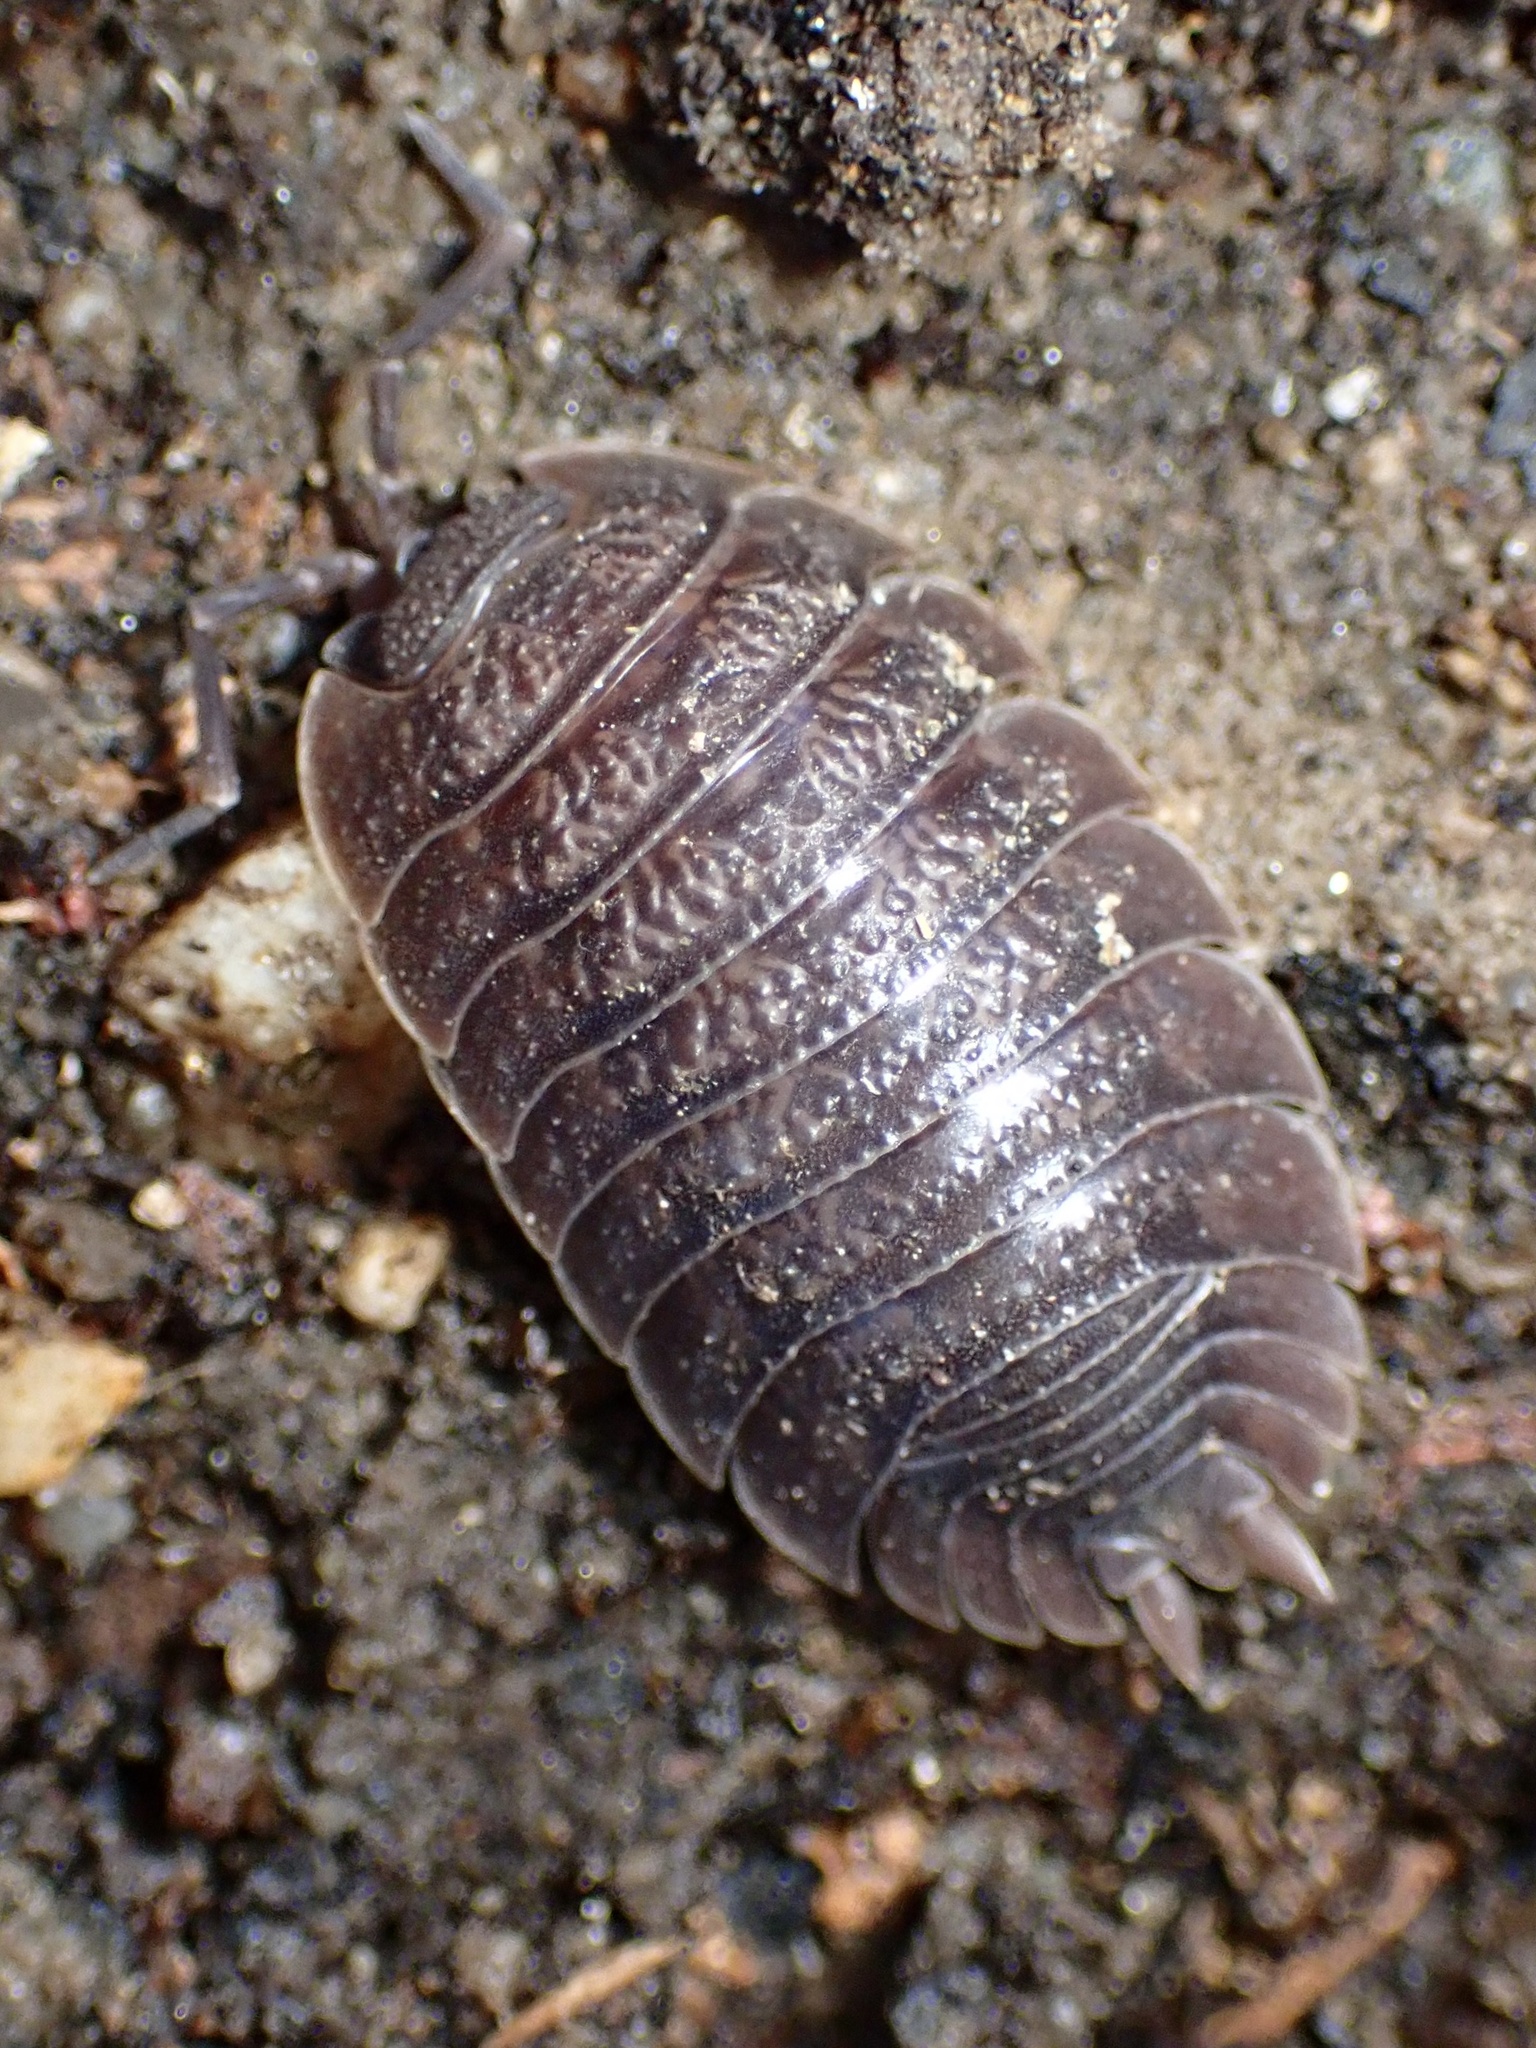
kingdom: Animalia
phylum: Arthropoda
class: Malacostraca
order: Isopoda
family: Porcellionidae
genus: Porcellio
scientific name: Porcellio dilatatus
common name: Isopod
